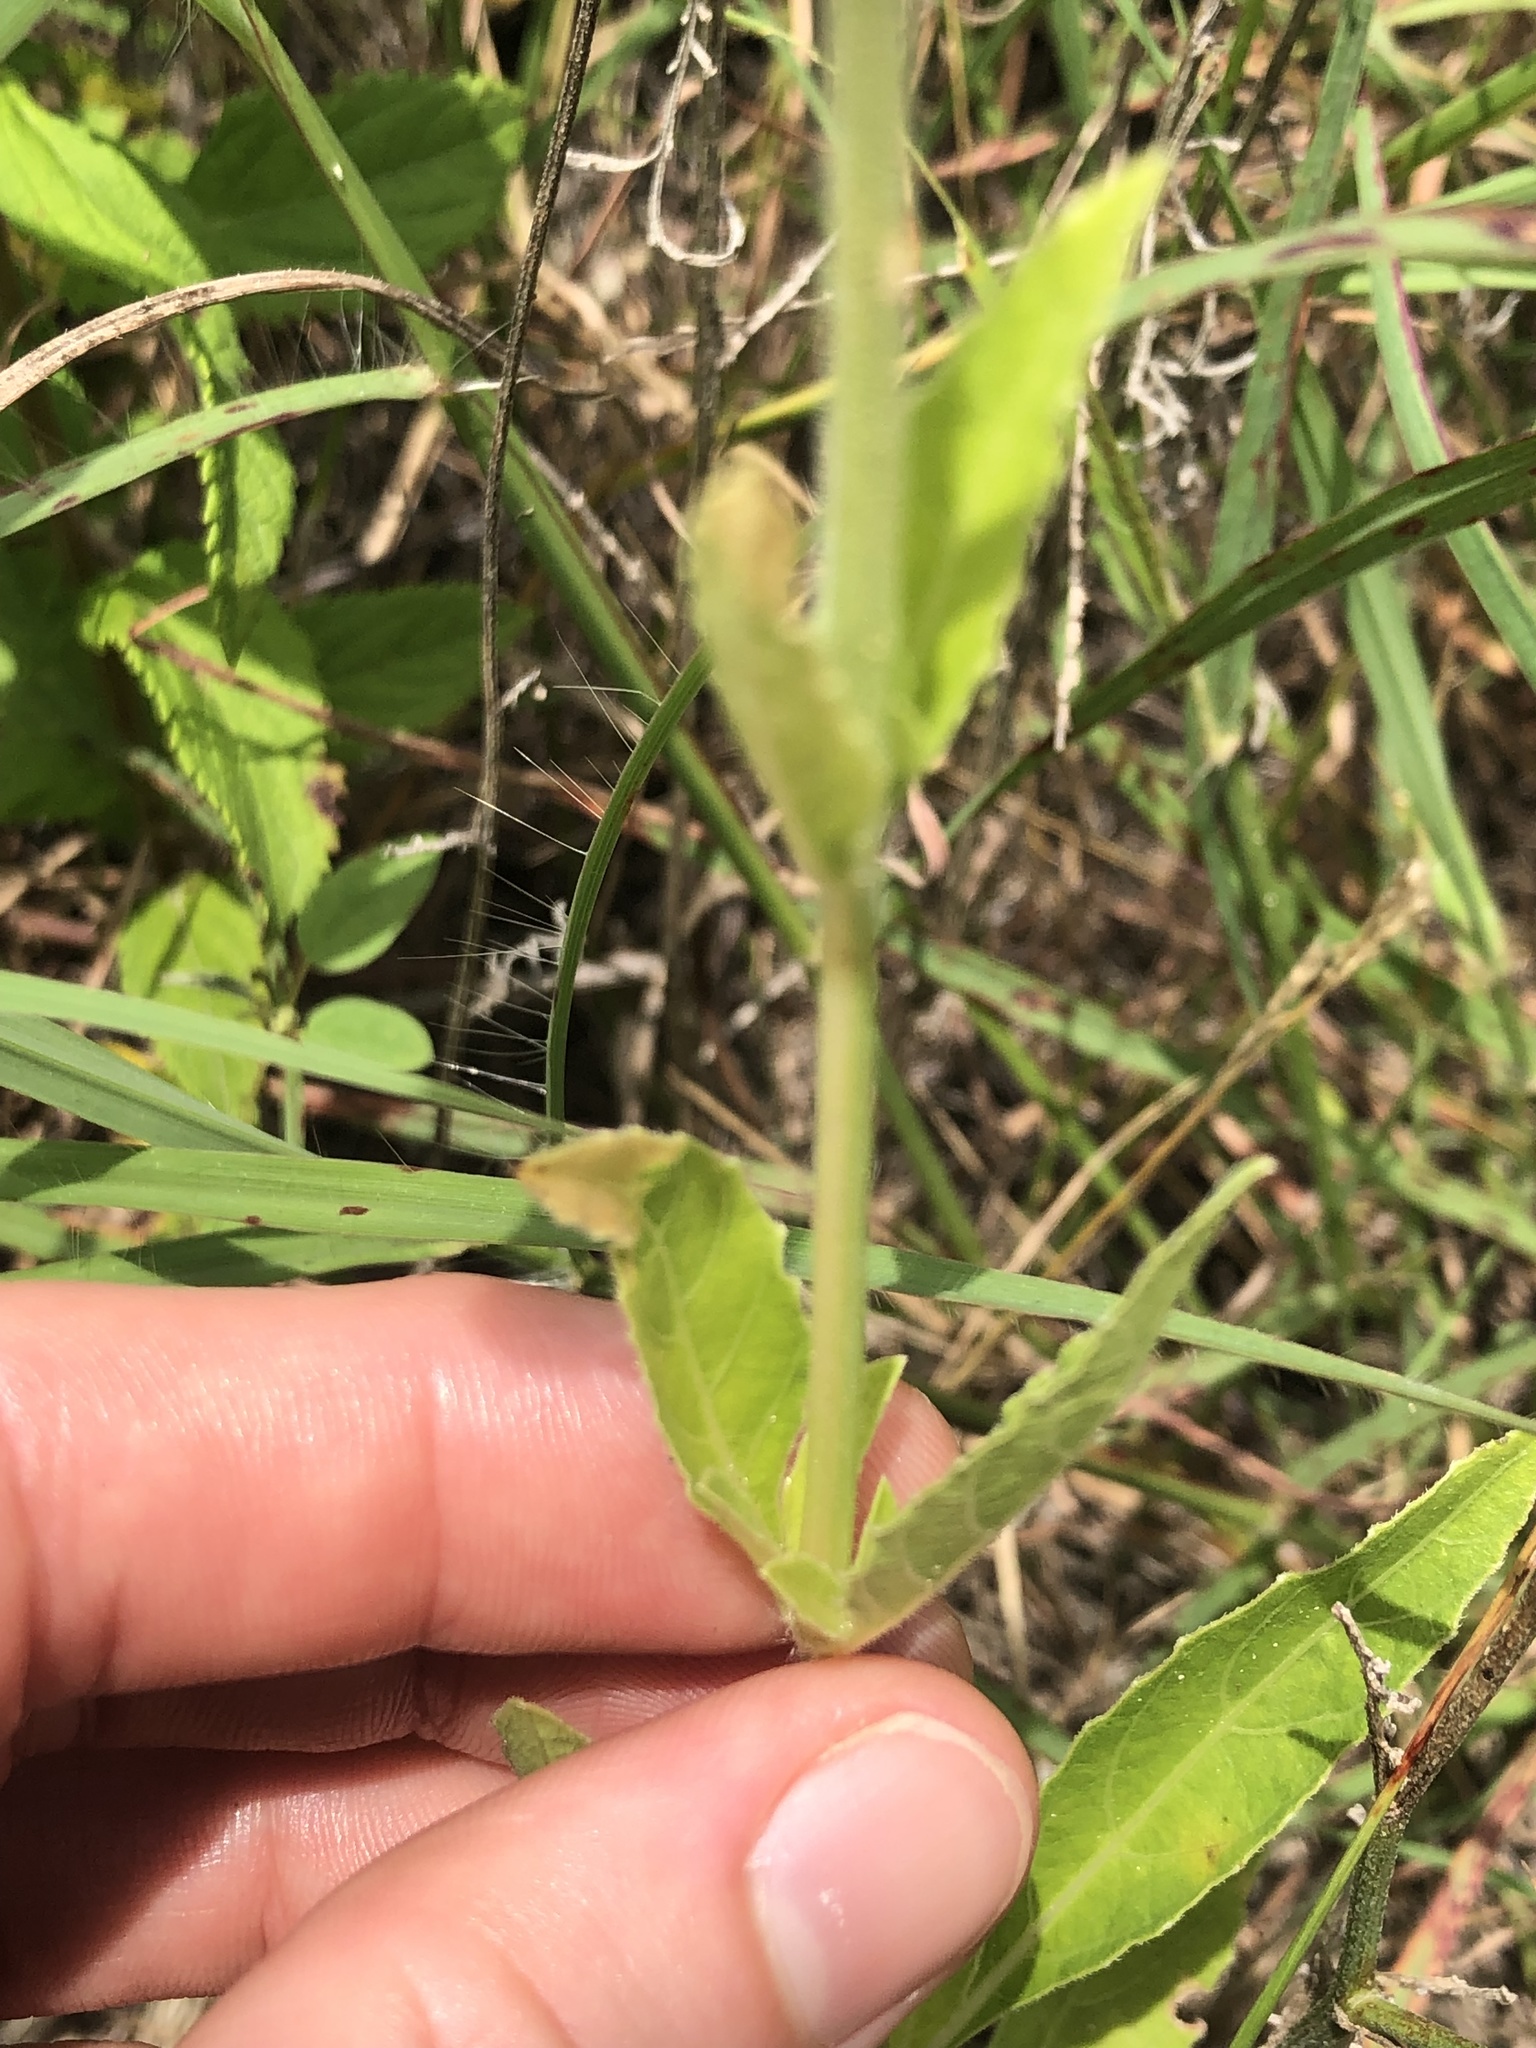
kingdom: Plantae
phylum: Tracheophyta
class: Magnoliopsida
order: Lamiales
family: Acanthaceae
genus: Ruellia
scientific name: Ruellia metziae
